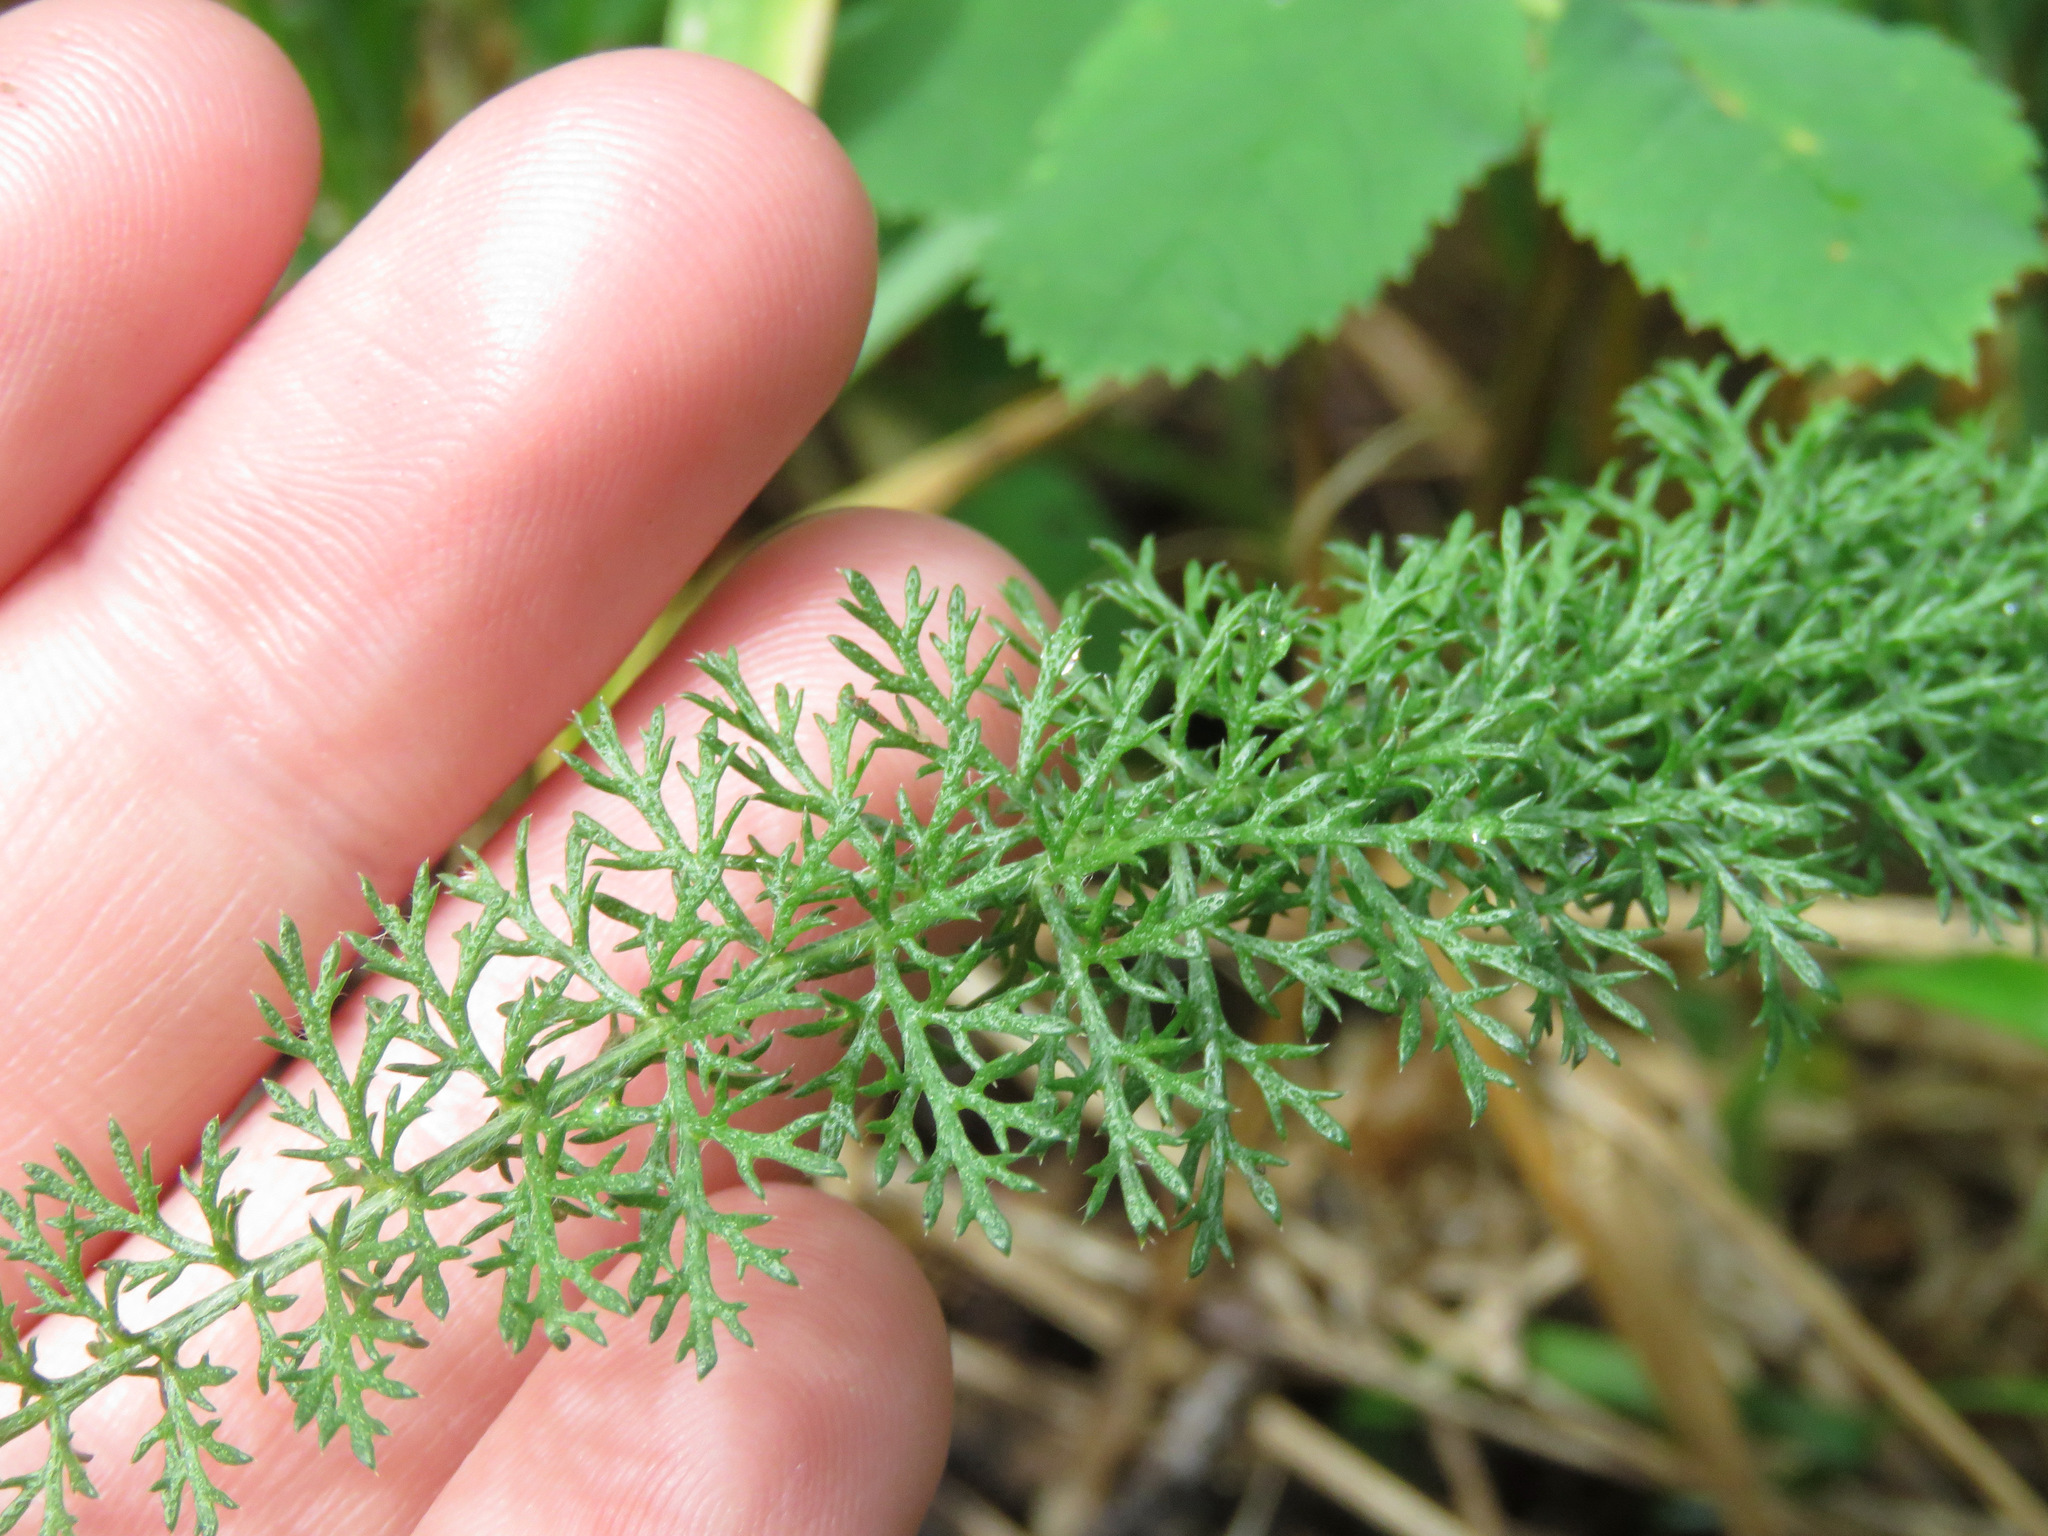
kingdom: Plantae
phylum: Tracheophyta
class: Magnoliopsida
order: Asterales
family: Asteraceae
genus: Achillea
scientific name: Achillea millefolium
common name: Yarrow
